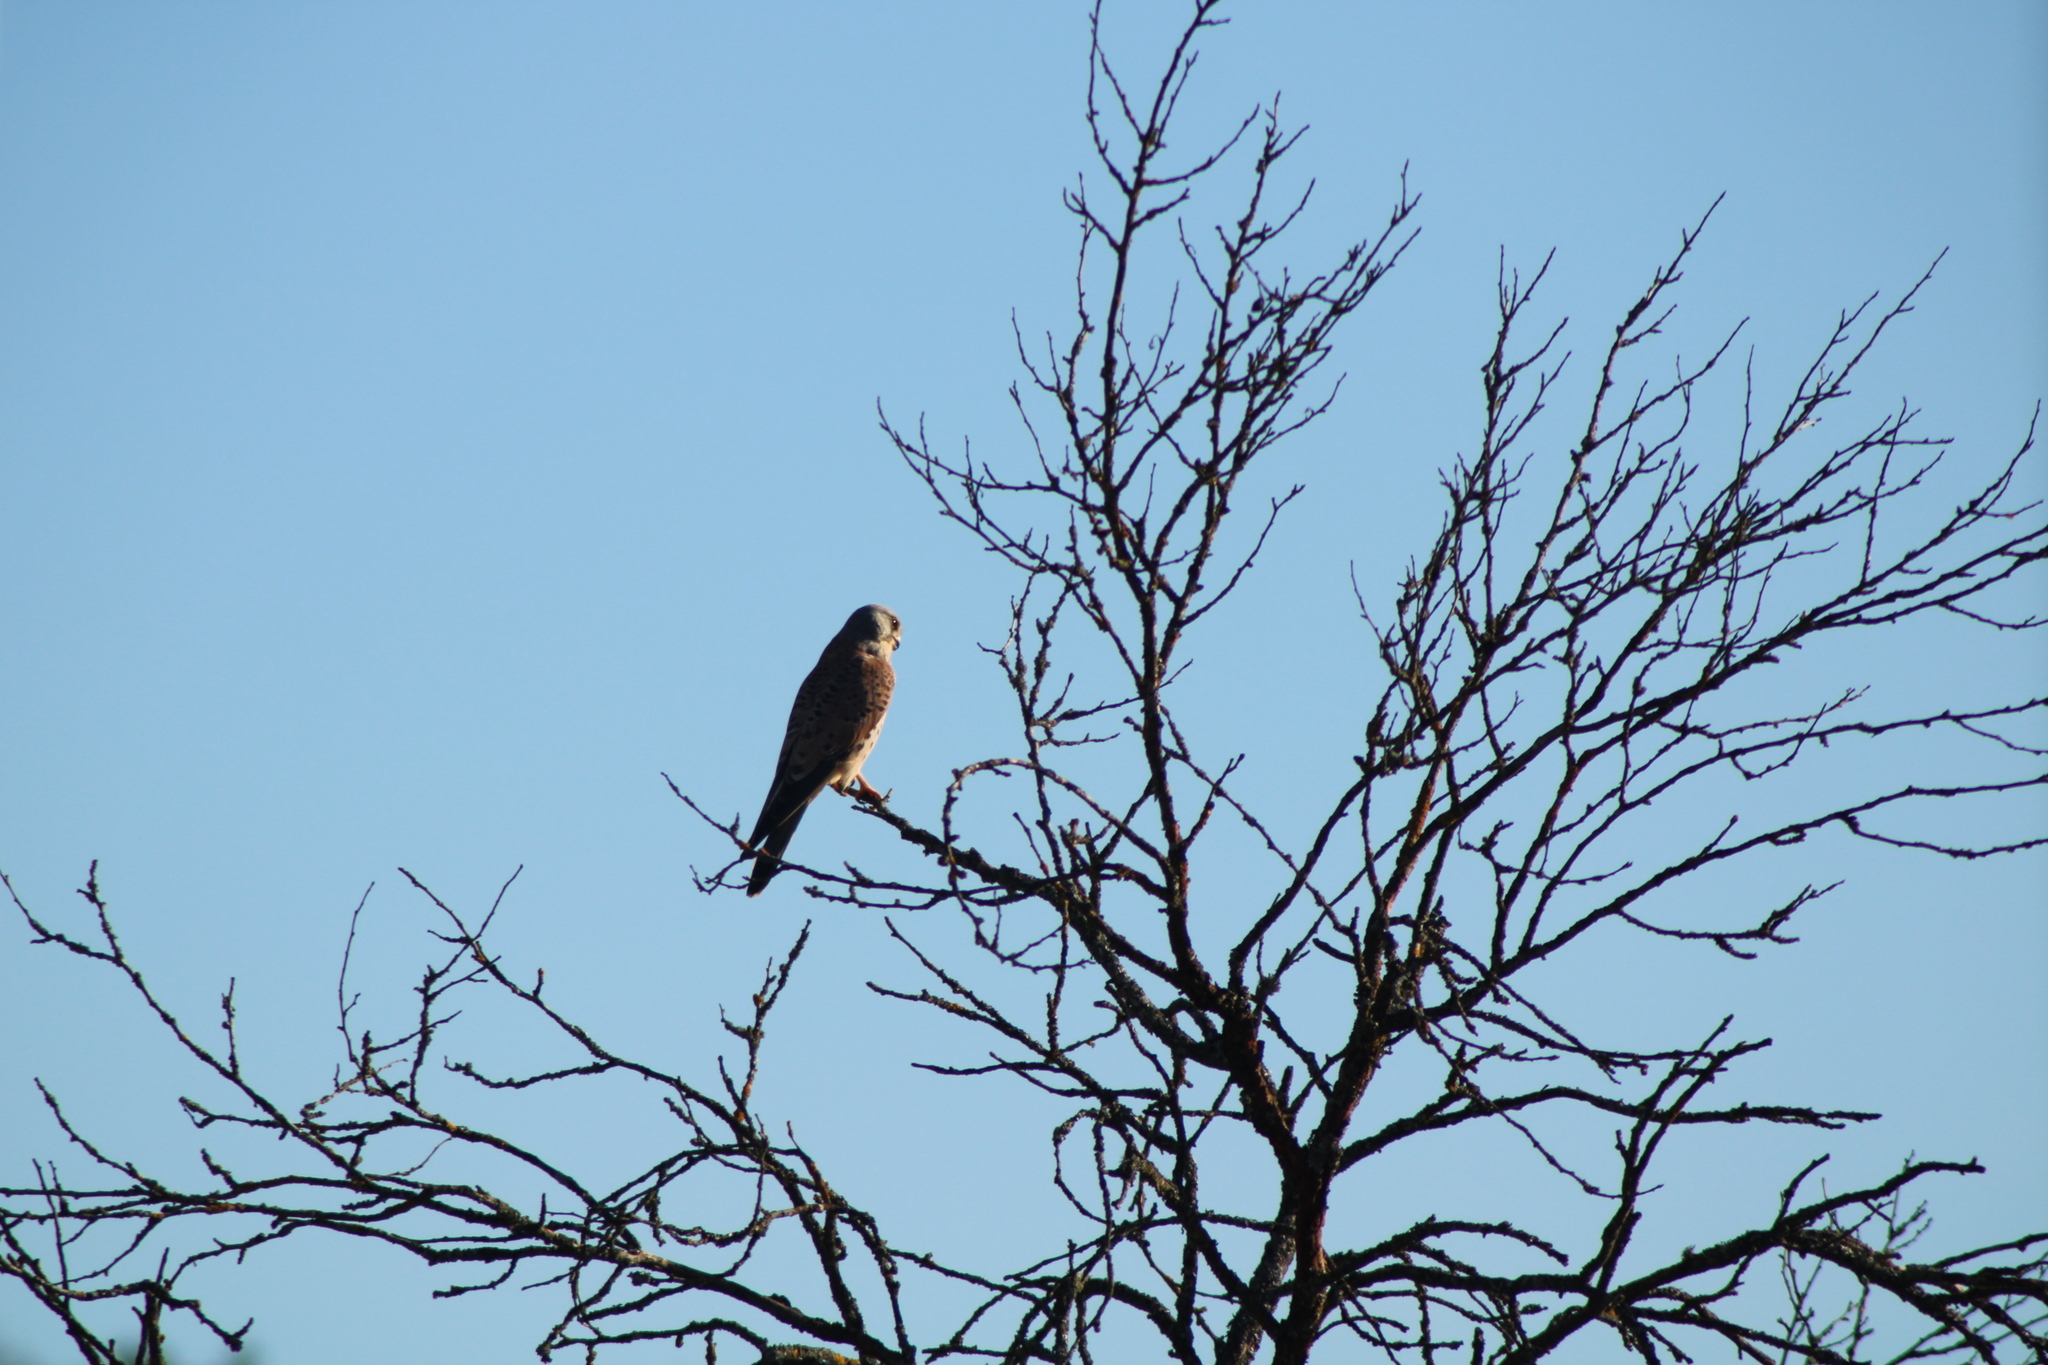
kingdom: Animalia
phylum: Chordata
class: Aves
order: Falconiformes
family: Falconidae
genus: Falco
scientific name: Falco tinnunculus
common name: Common kestrel
